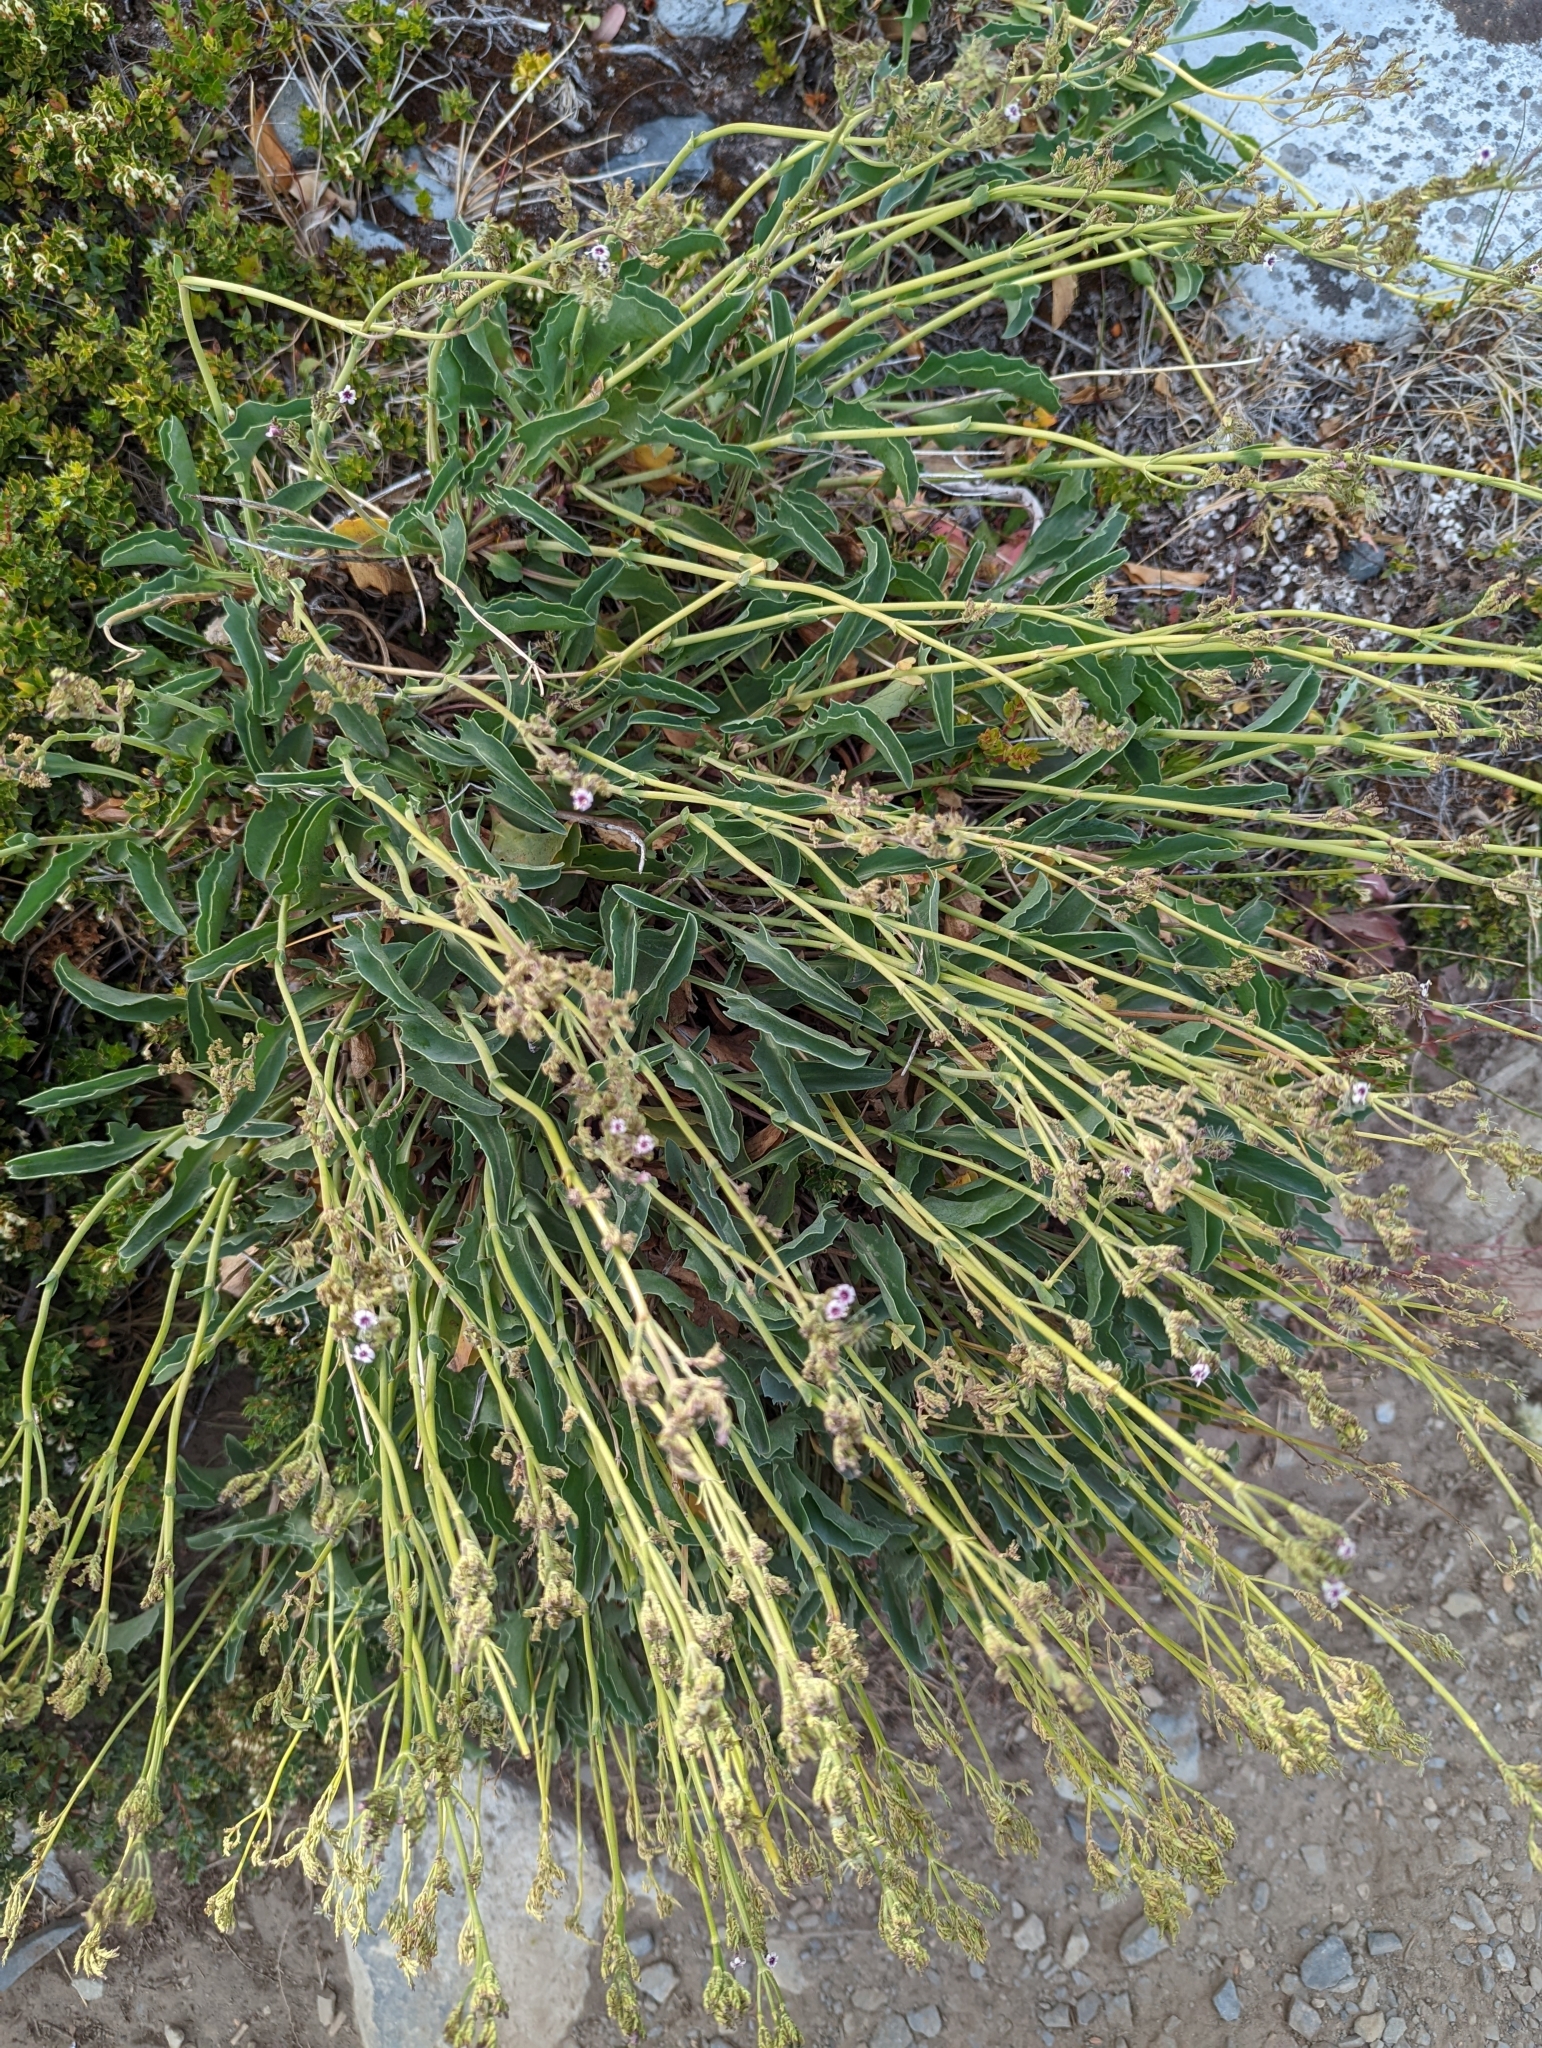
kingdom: Plantae
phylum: Tracheophyta
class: Magnoliopsida
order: Dipsacales
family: Caprifoliaceae
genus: Valeriana
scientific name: Valeriana carnosa
